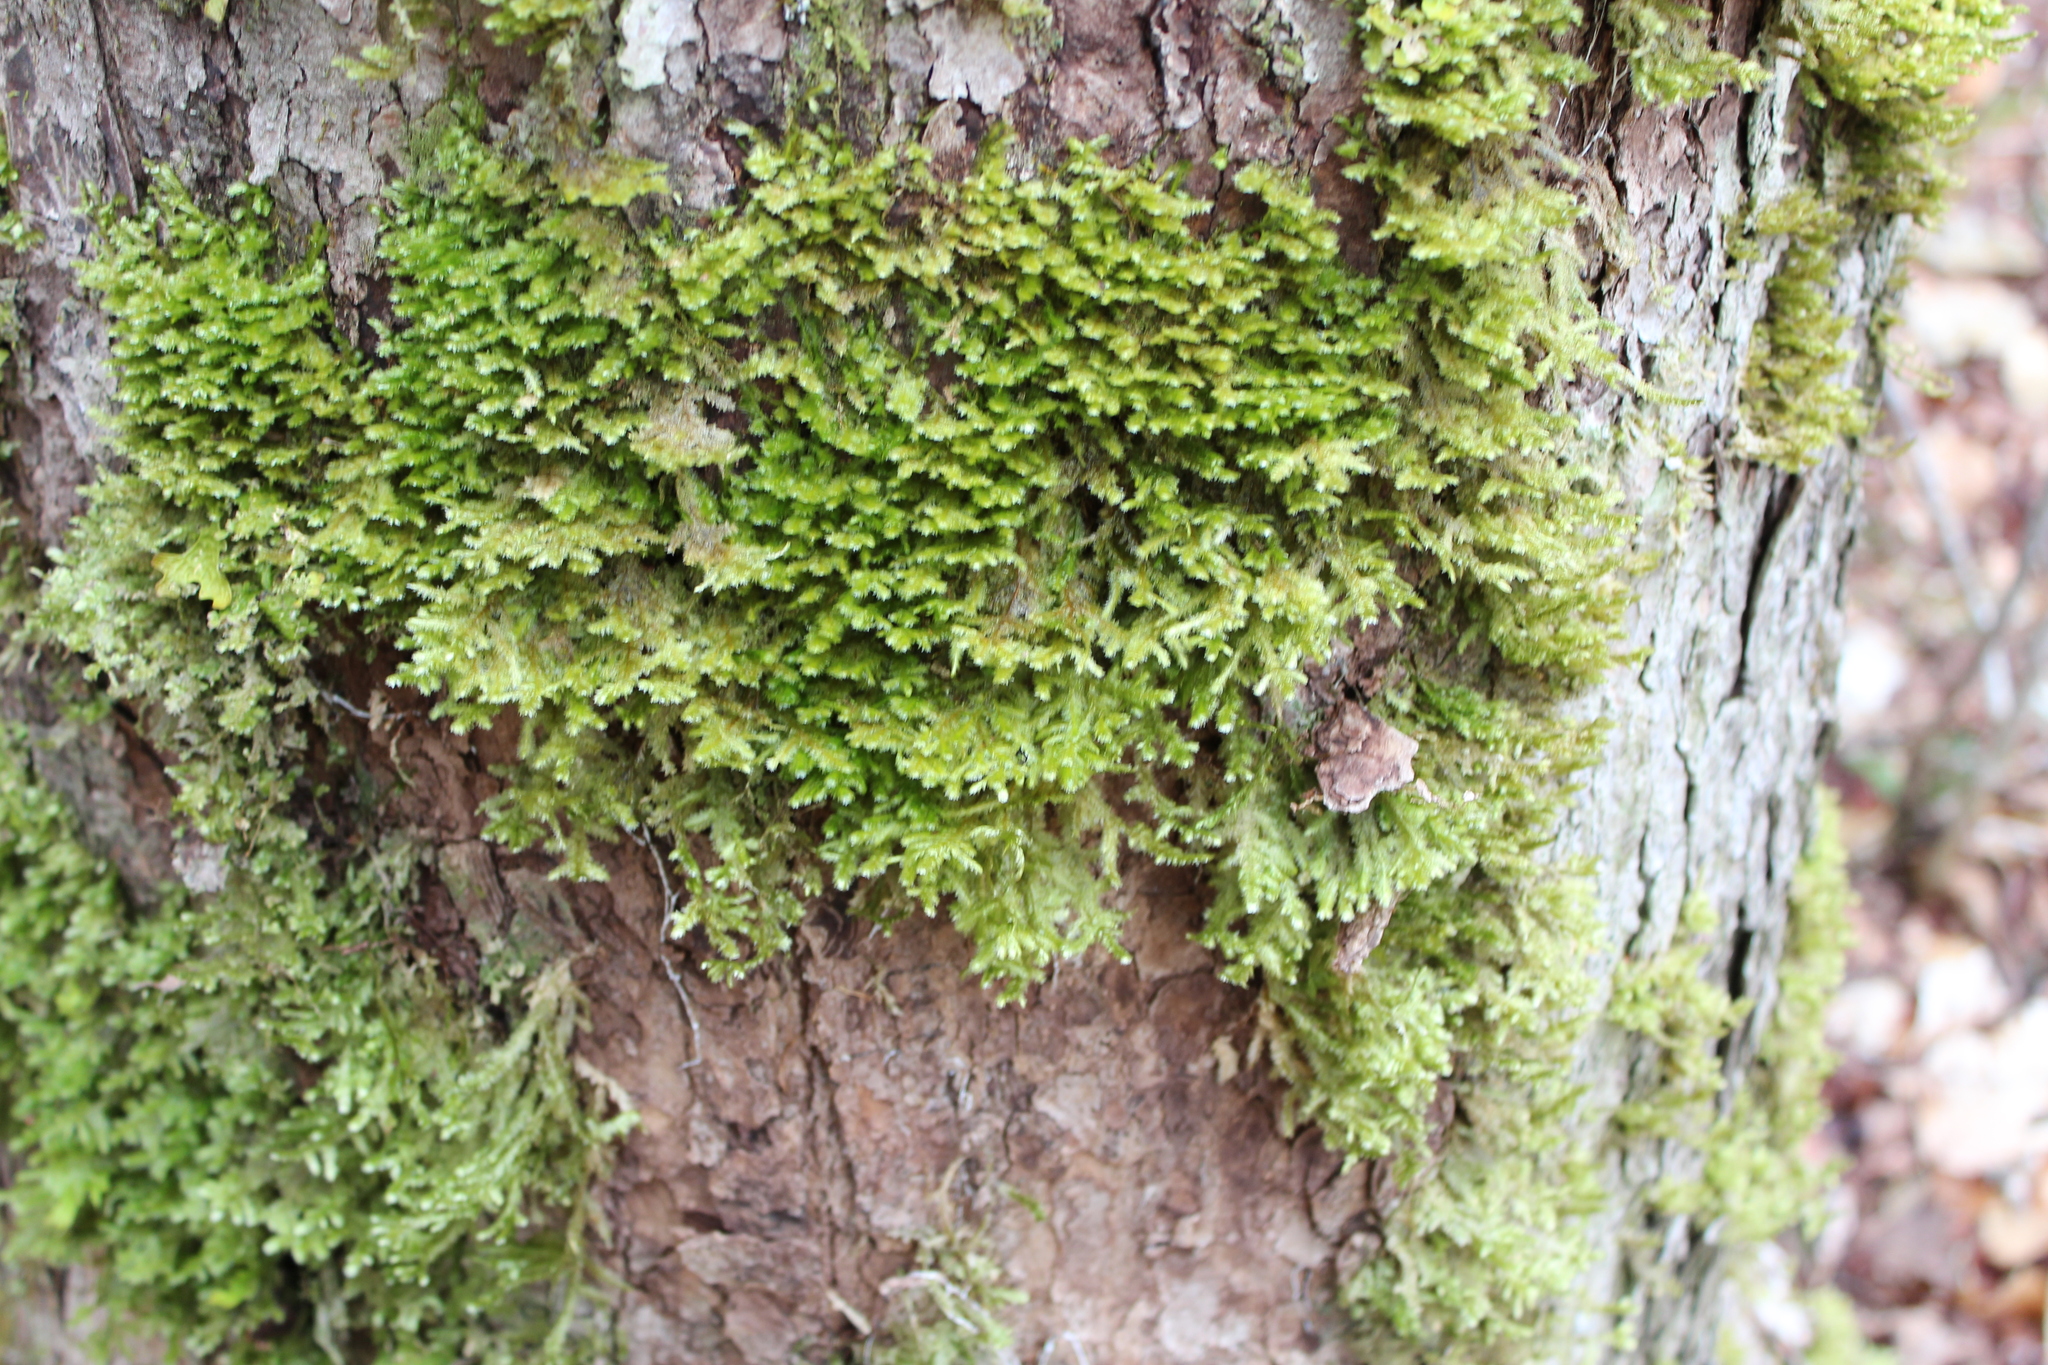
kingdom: Plantae
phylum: Bryophyta
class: Bryopsida
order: Hypnales
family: Neckeraceae
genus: Neckera
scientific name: Neckera pennata
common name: Feathery neckera
